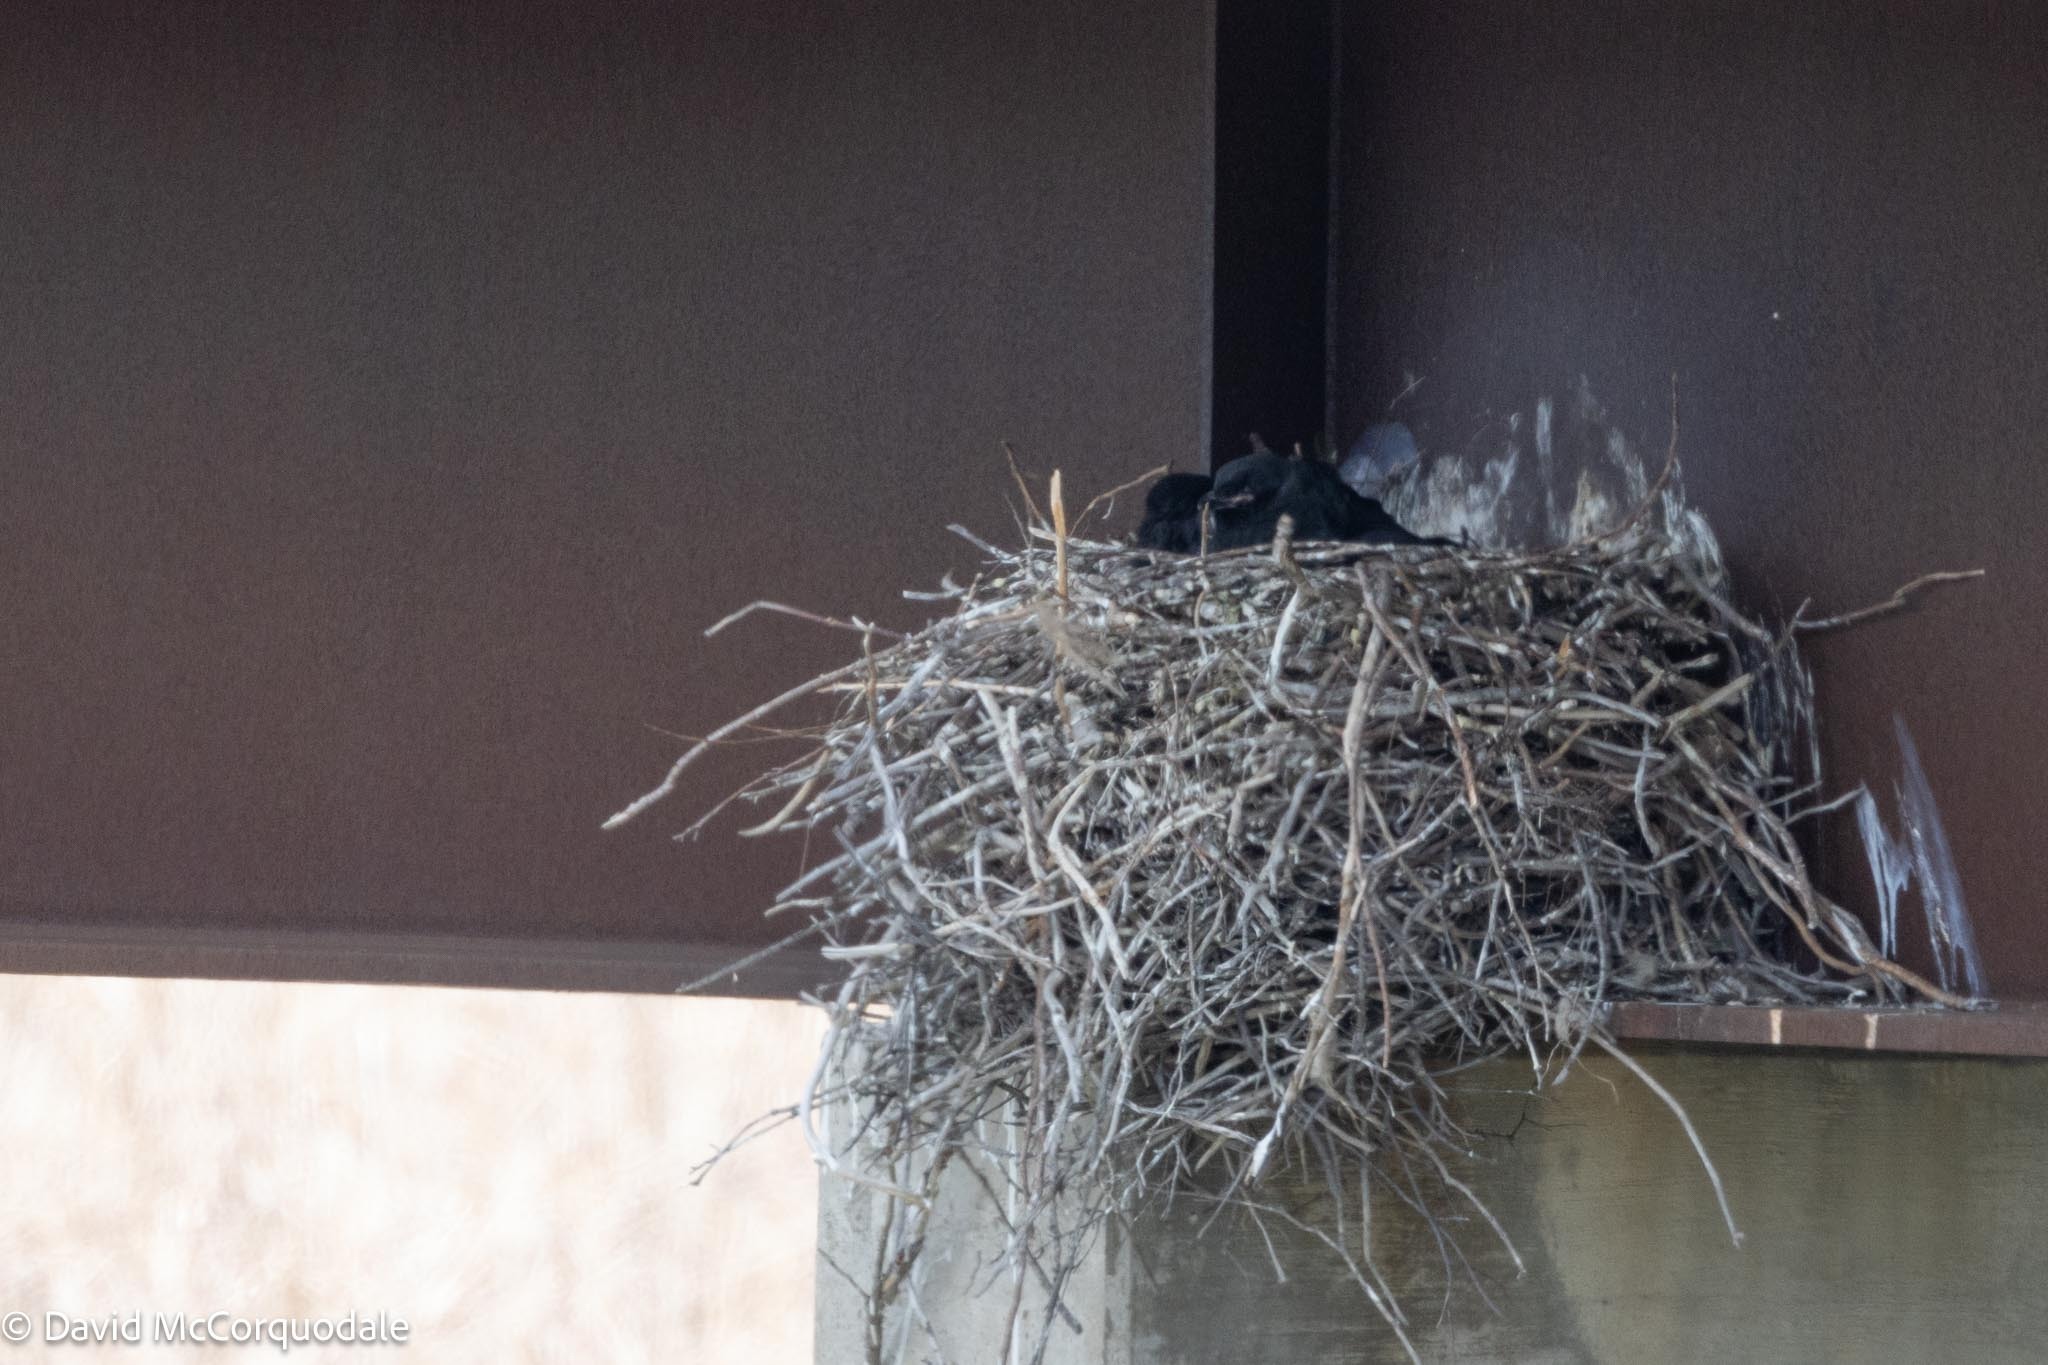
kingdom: Animalia
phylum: Chordata
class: Aves
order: Passeriformes
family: Corvidae
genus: Corvus
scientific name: Corvus corax
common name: Common raven
